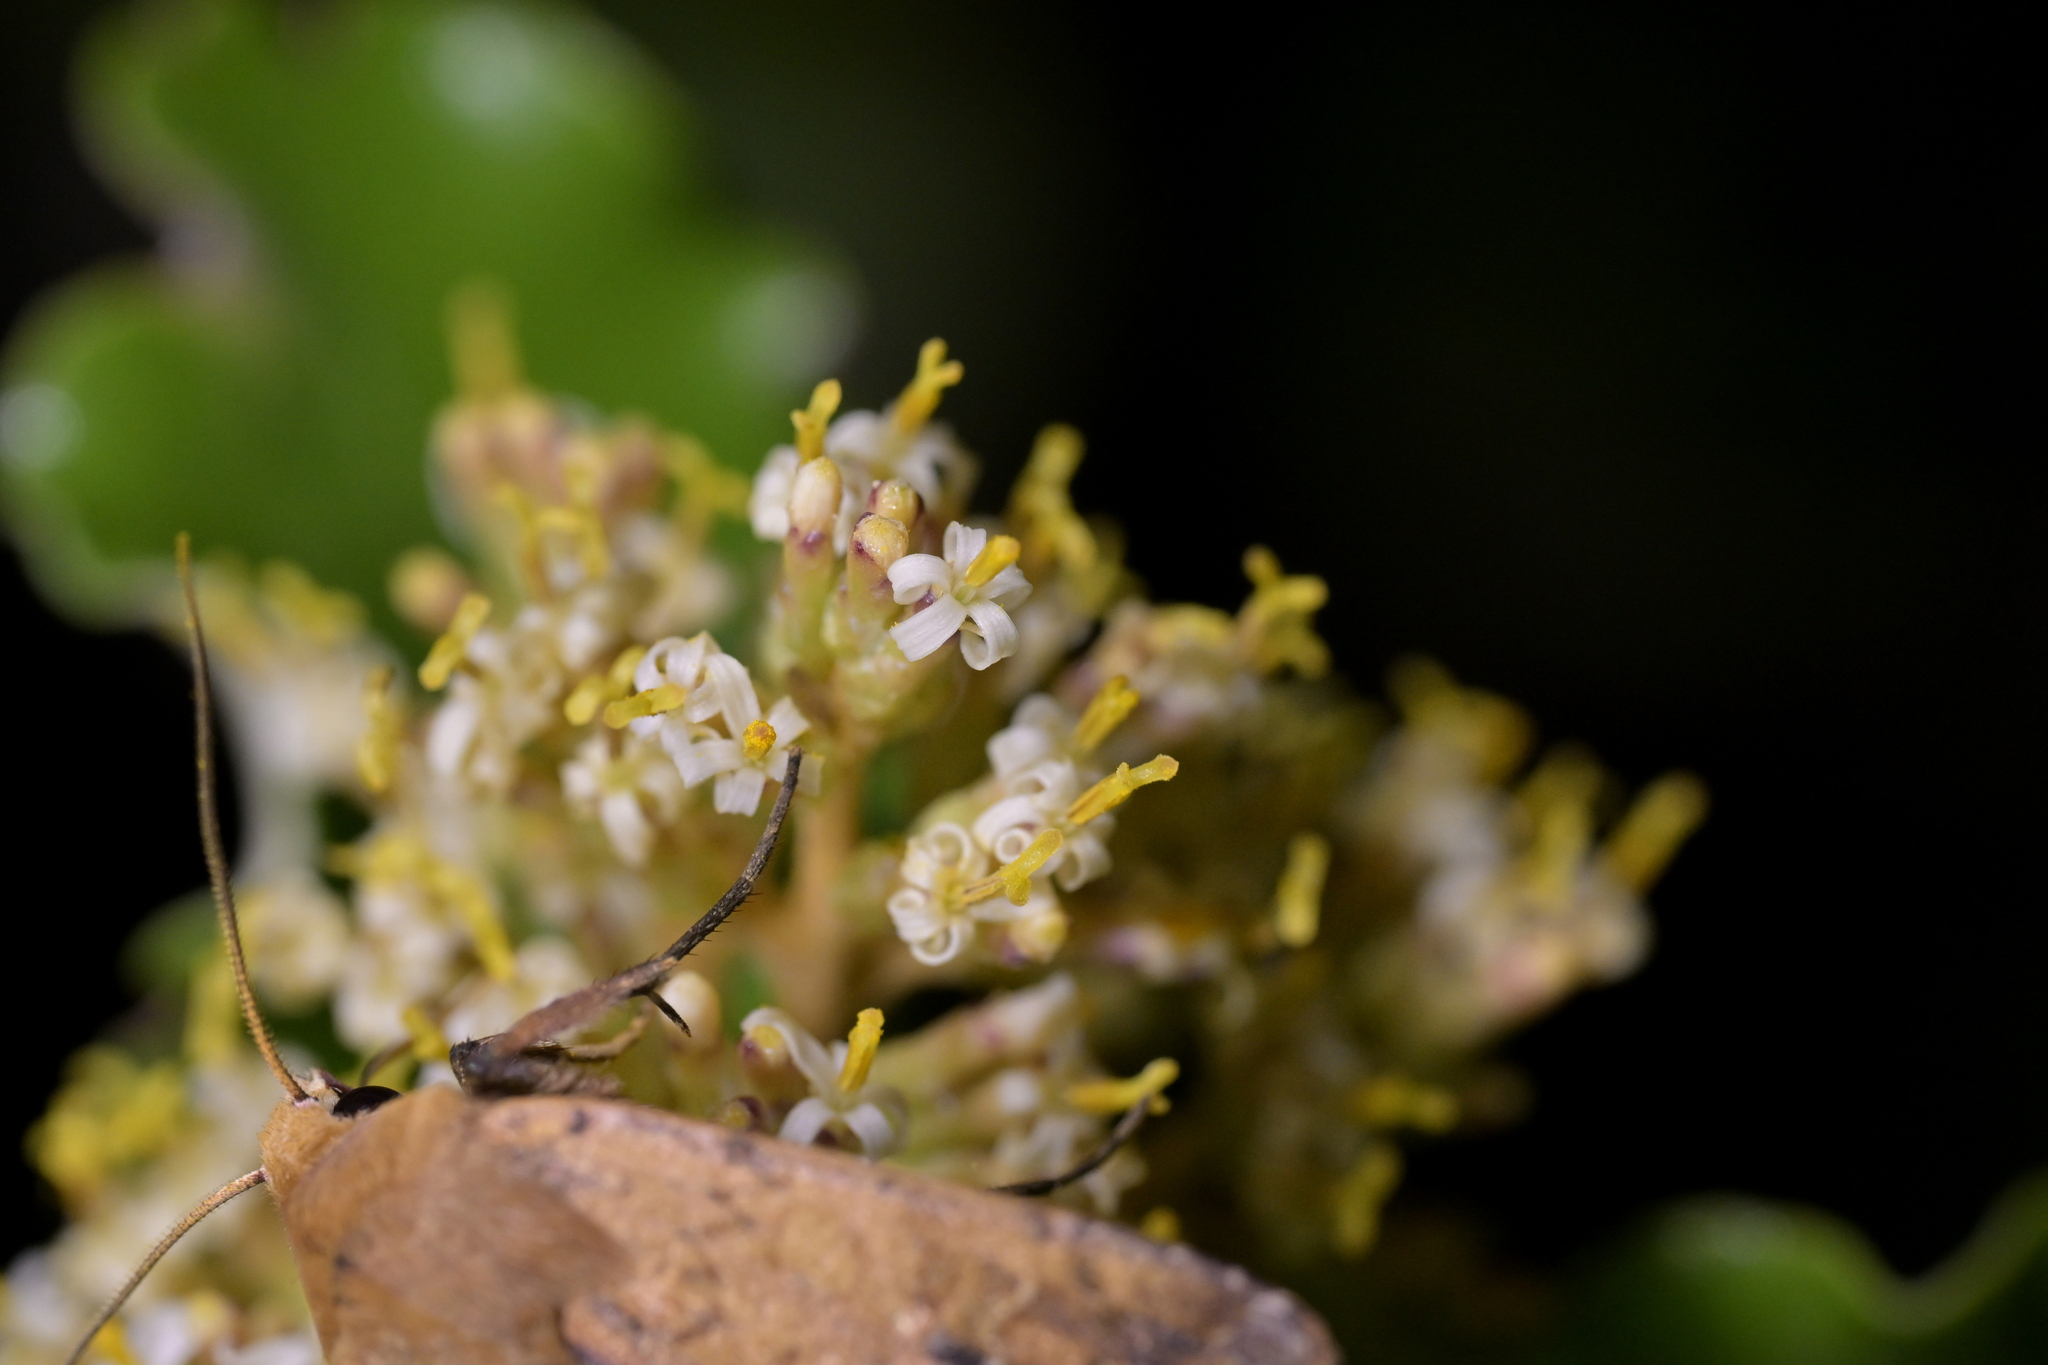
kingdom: Plantae
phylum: Tracheophyta
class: Magnoliopsida
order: Asterales
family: Asteraceae
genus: Olearia
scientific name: Olearia paniculata
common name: Akiraho
